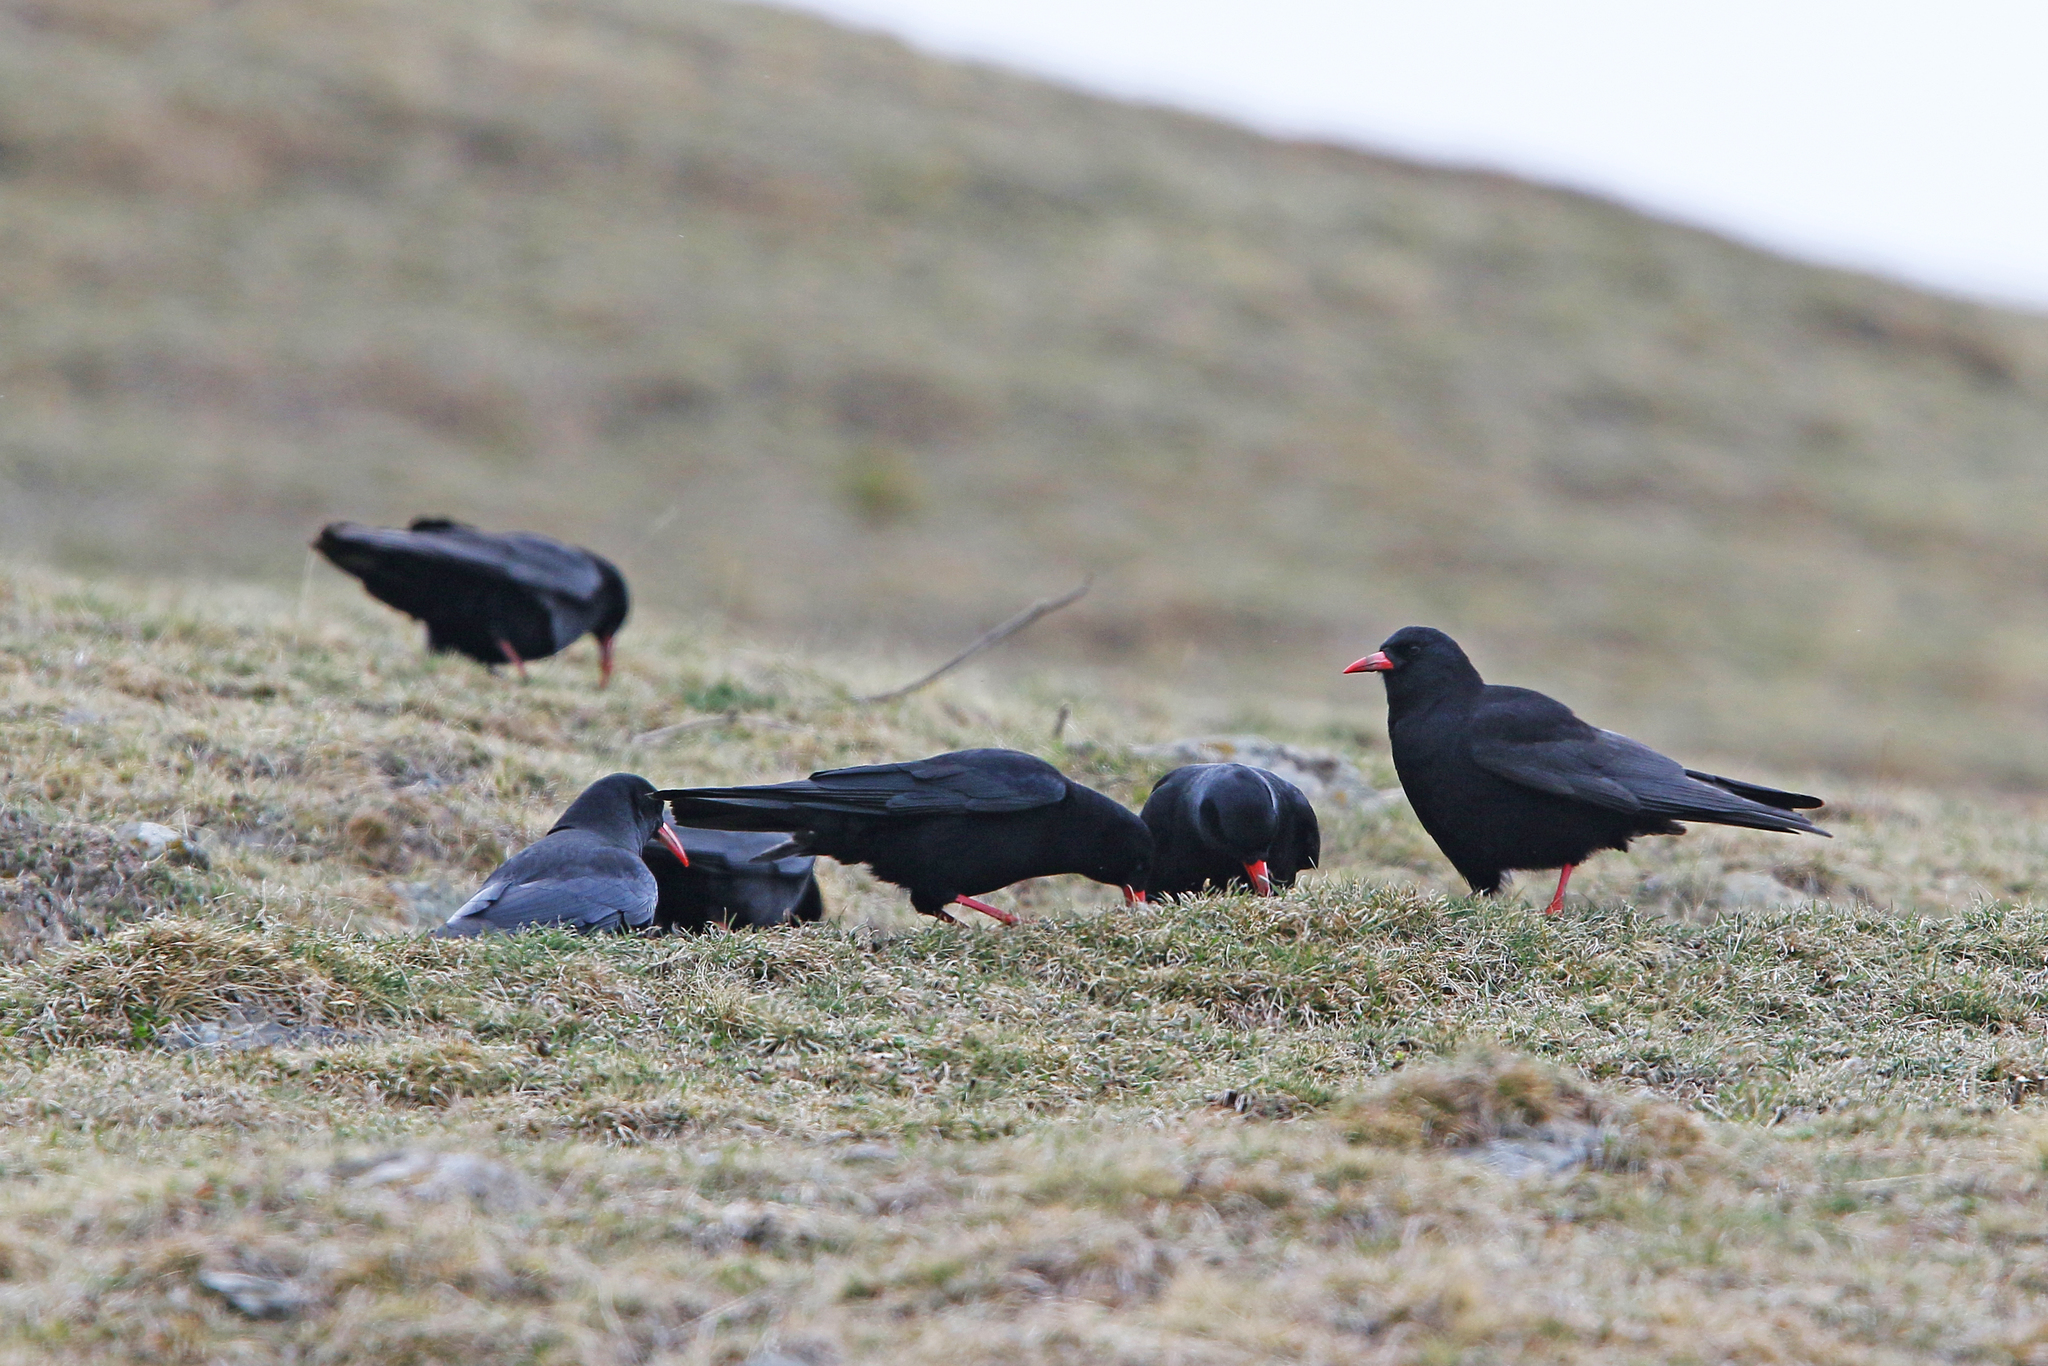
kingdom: Animalia
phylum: Chordata
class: Aves
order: Passeriformes
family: Corvidae
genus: Pyrrhocorax
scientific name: Pyrrhocorax pyrrhocorax
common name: Red-billed chough
